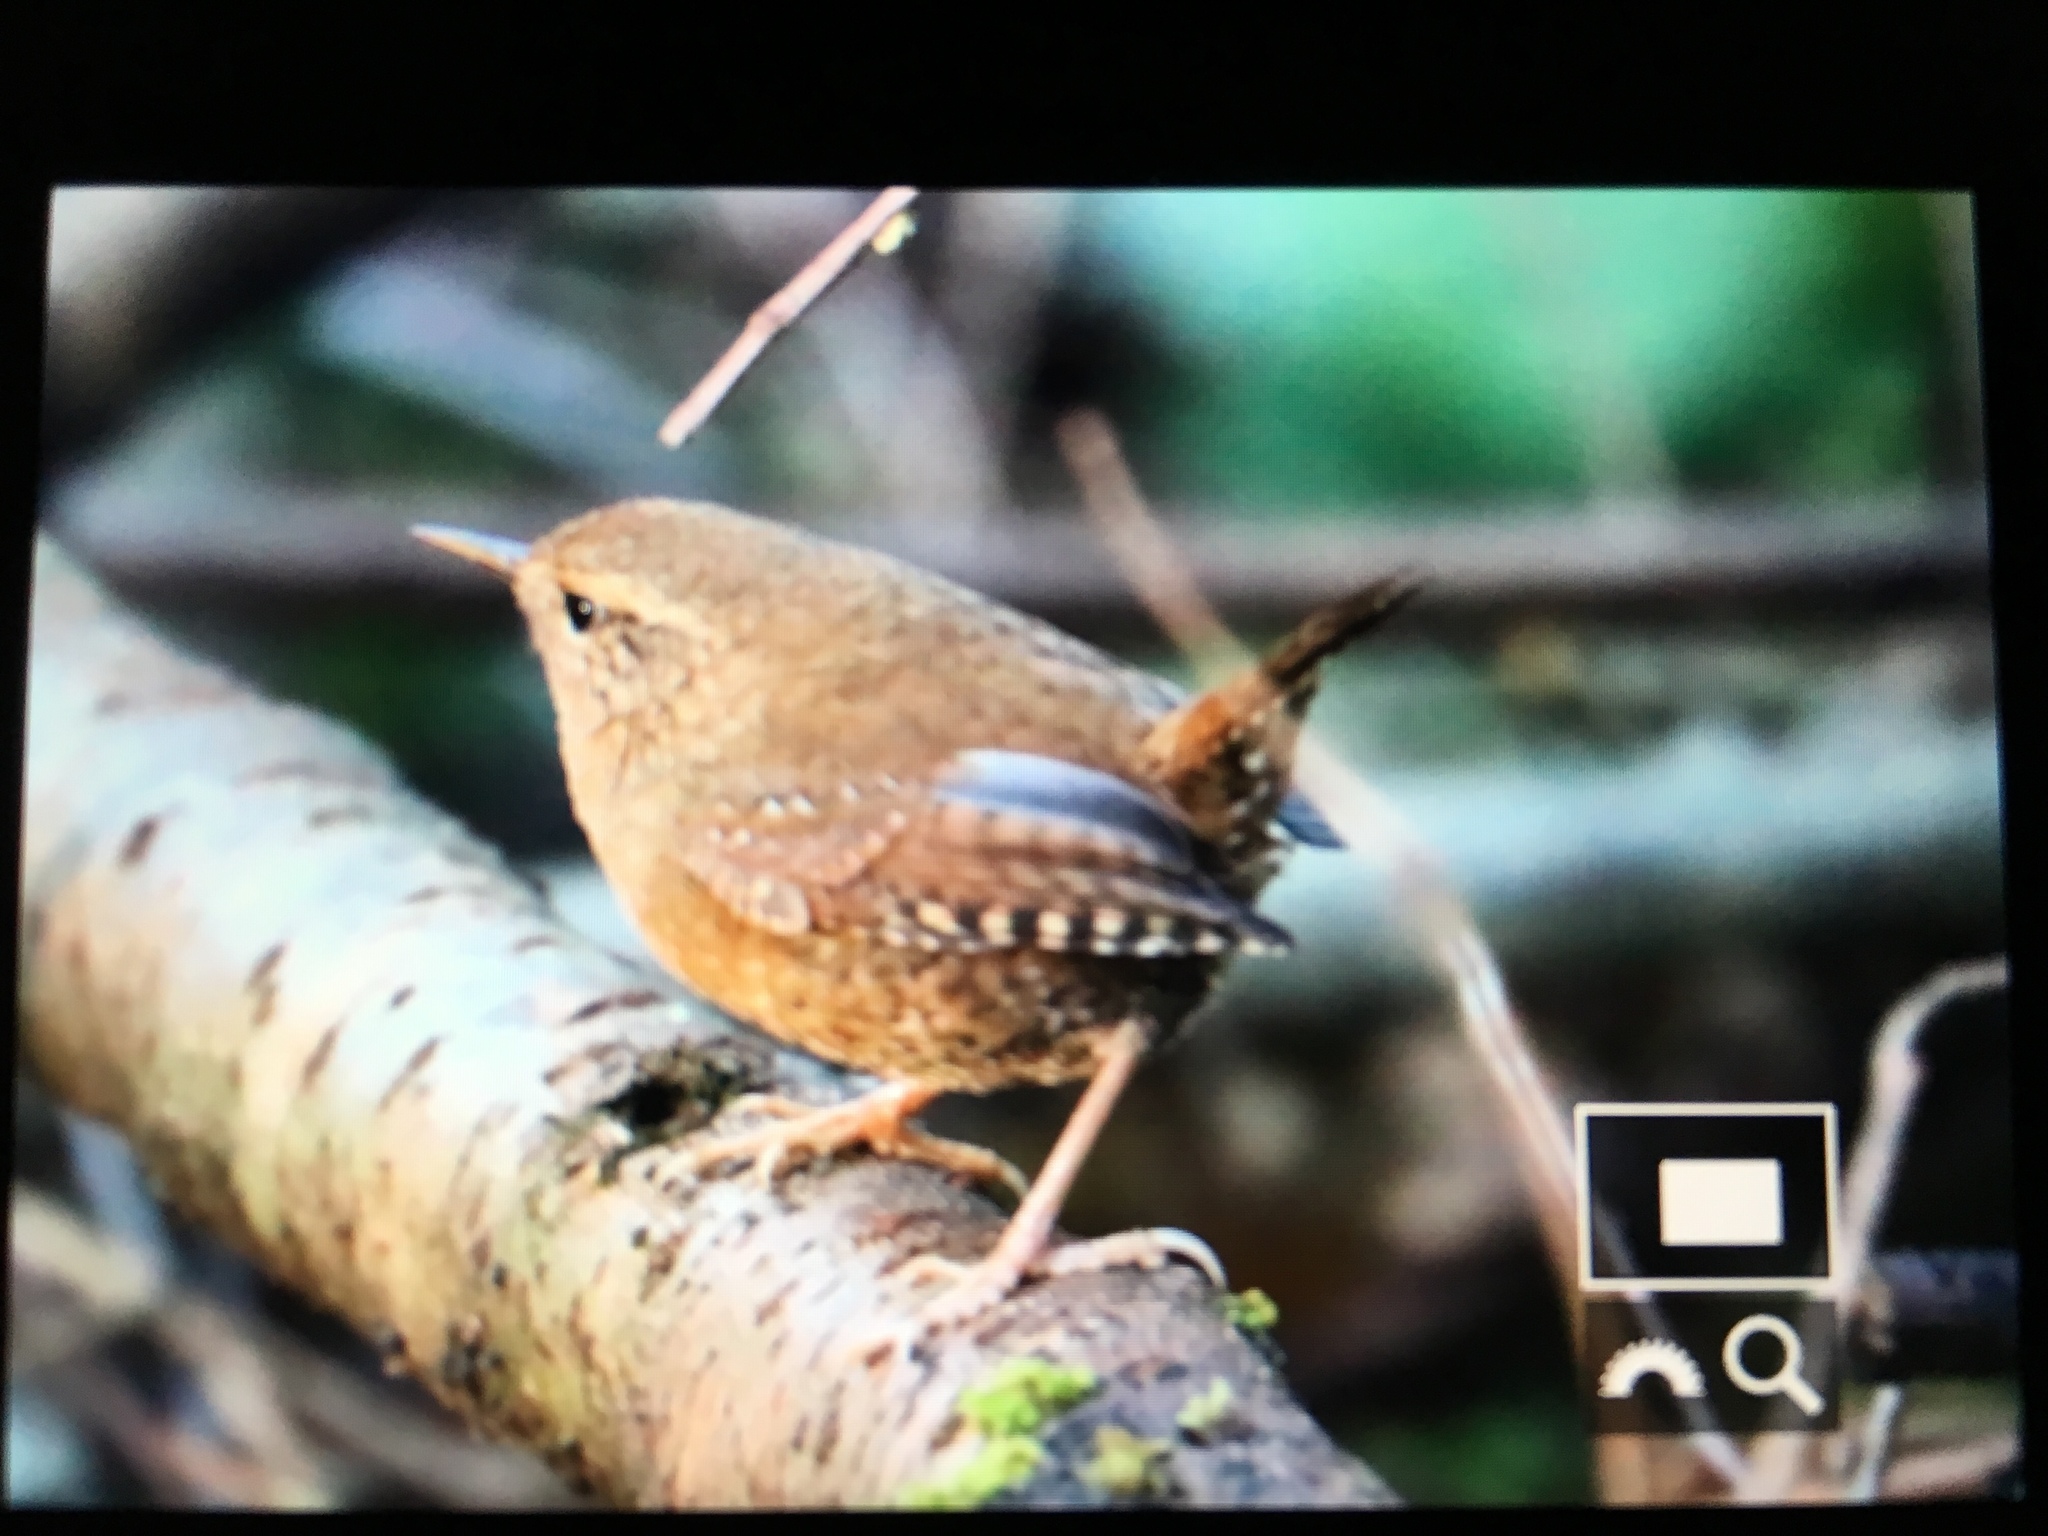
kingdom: Animalia
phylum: Chordata
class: Aves
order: Passeriformes
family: Troglodytidae
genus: Troglodytes
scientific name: Troglodytes pacificus
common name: Pacific wren
